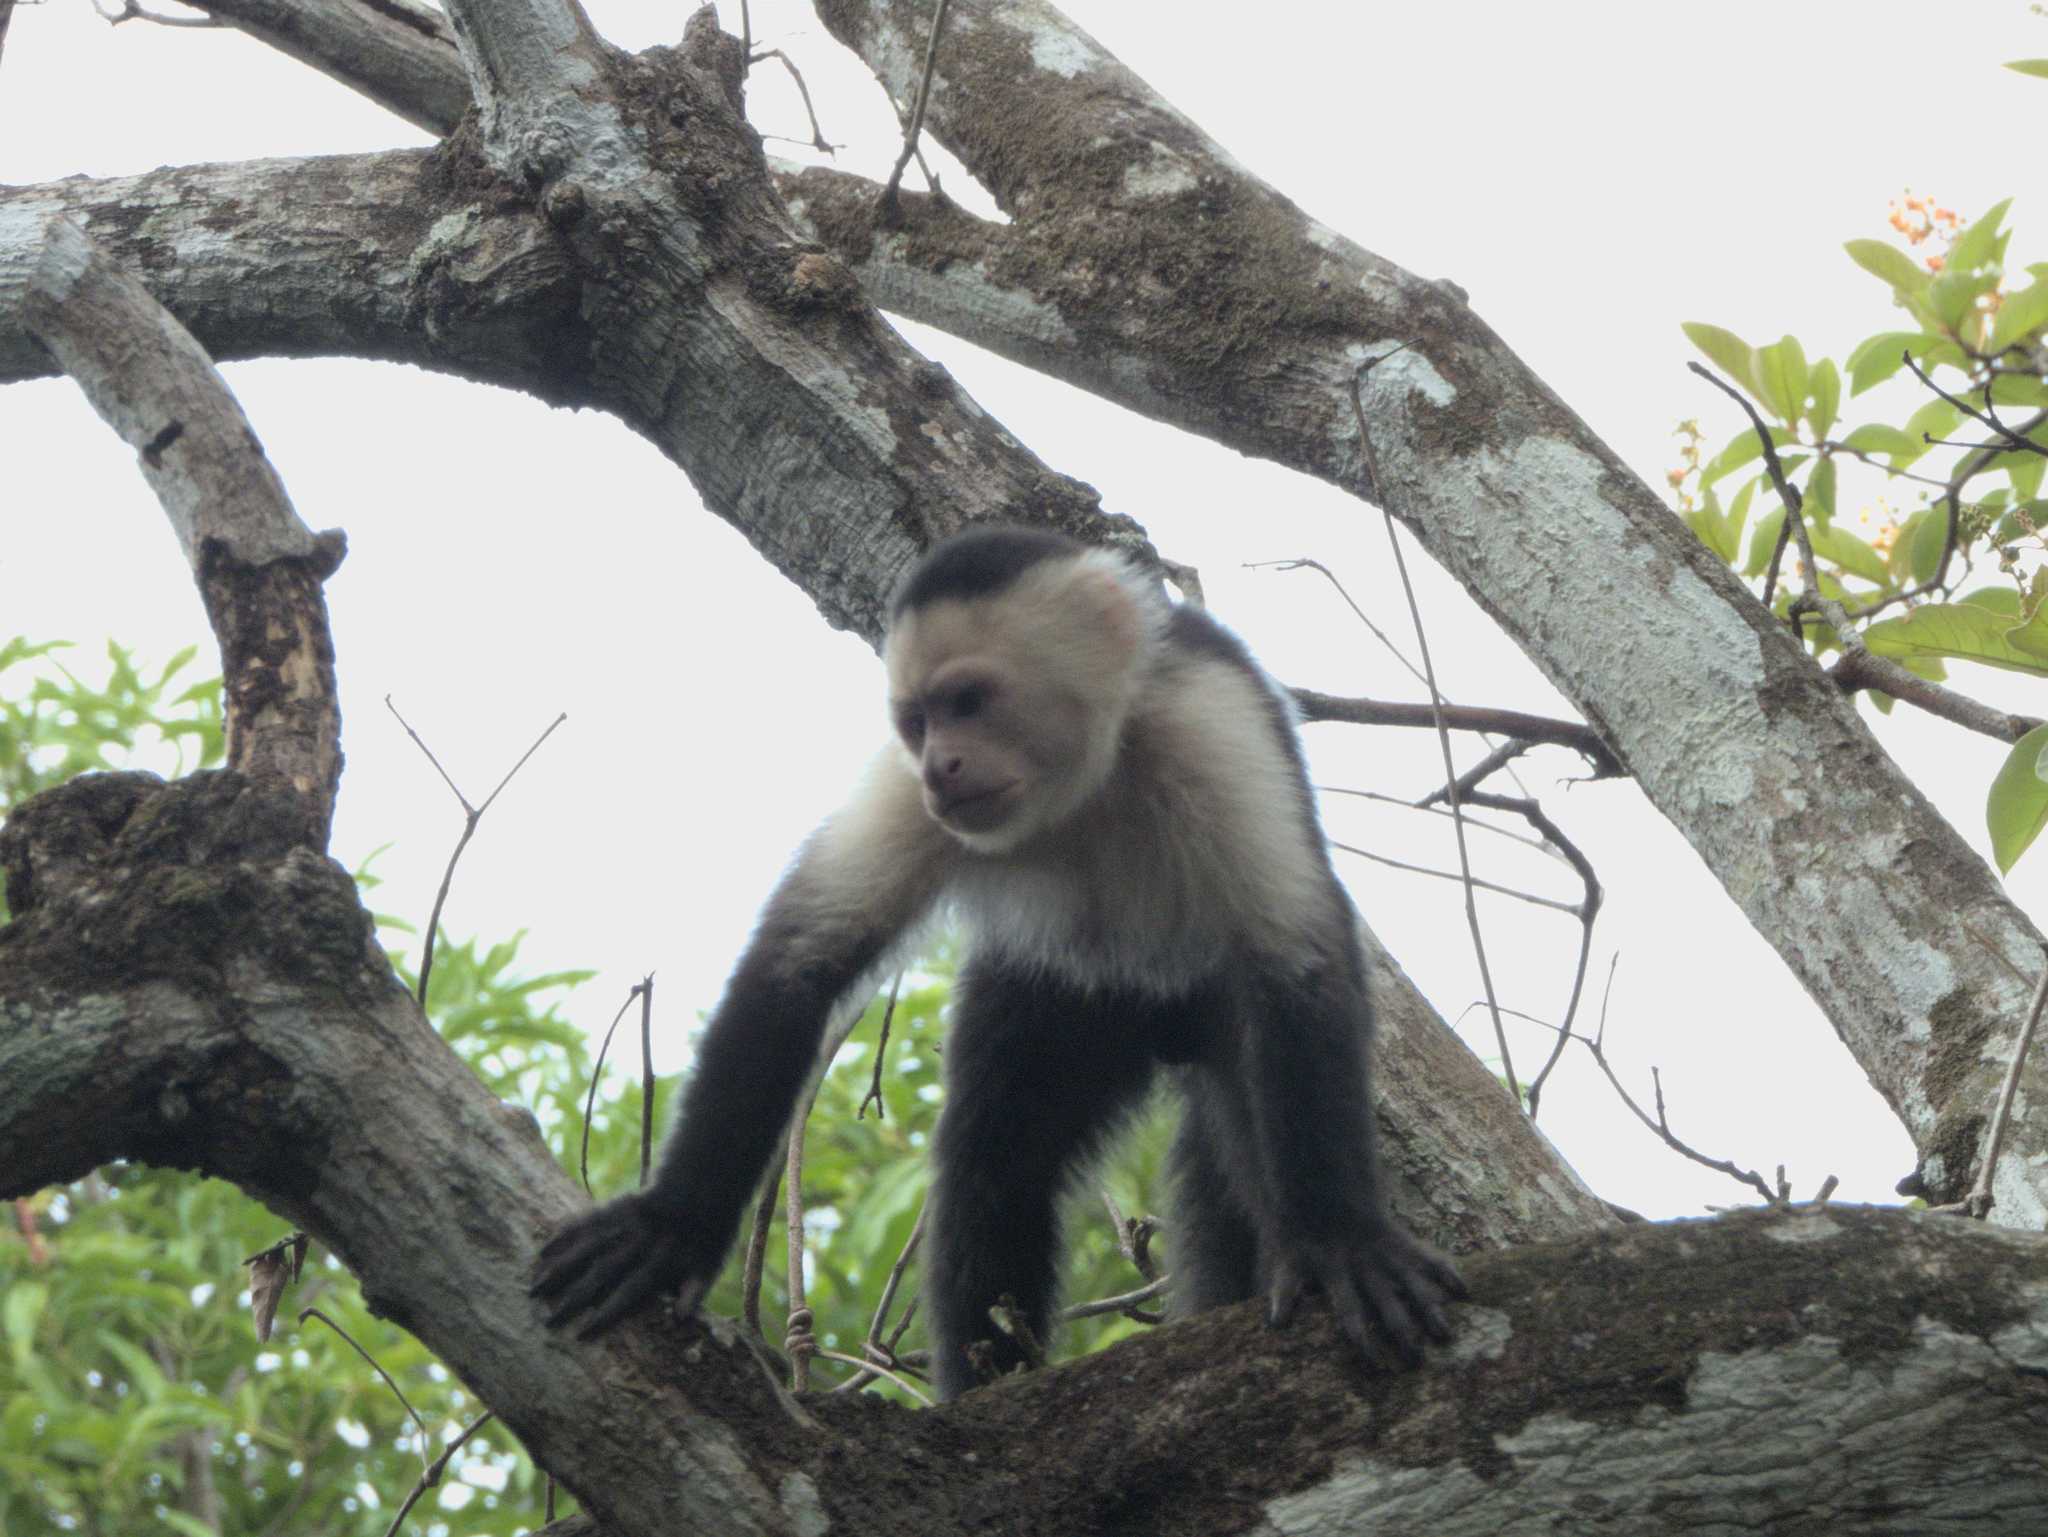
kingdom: Animalia
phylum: Chordata
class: Mammalia
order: Primates
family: Cebidae
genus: Cebus
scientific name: Cebus imitator
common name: Panamanian white-faced capuchin
